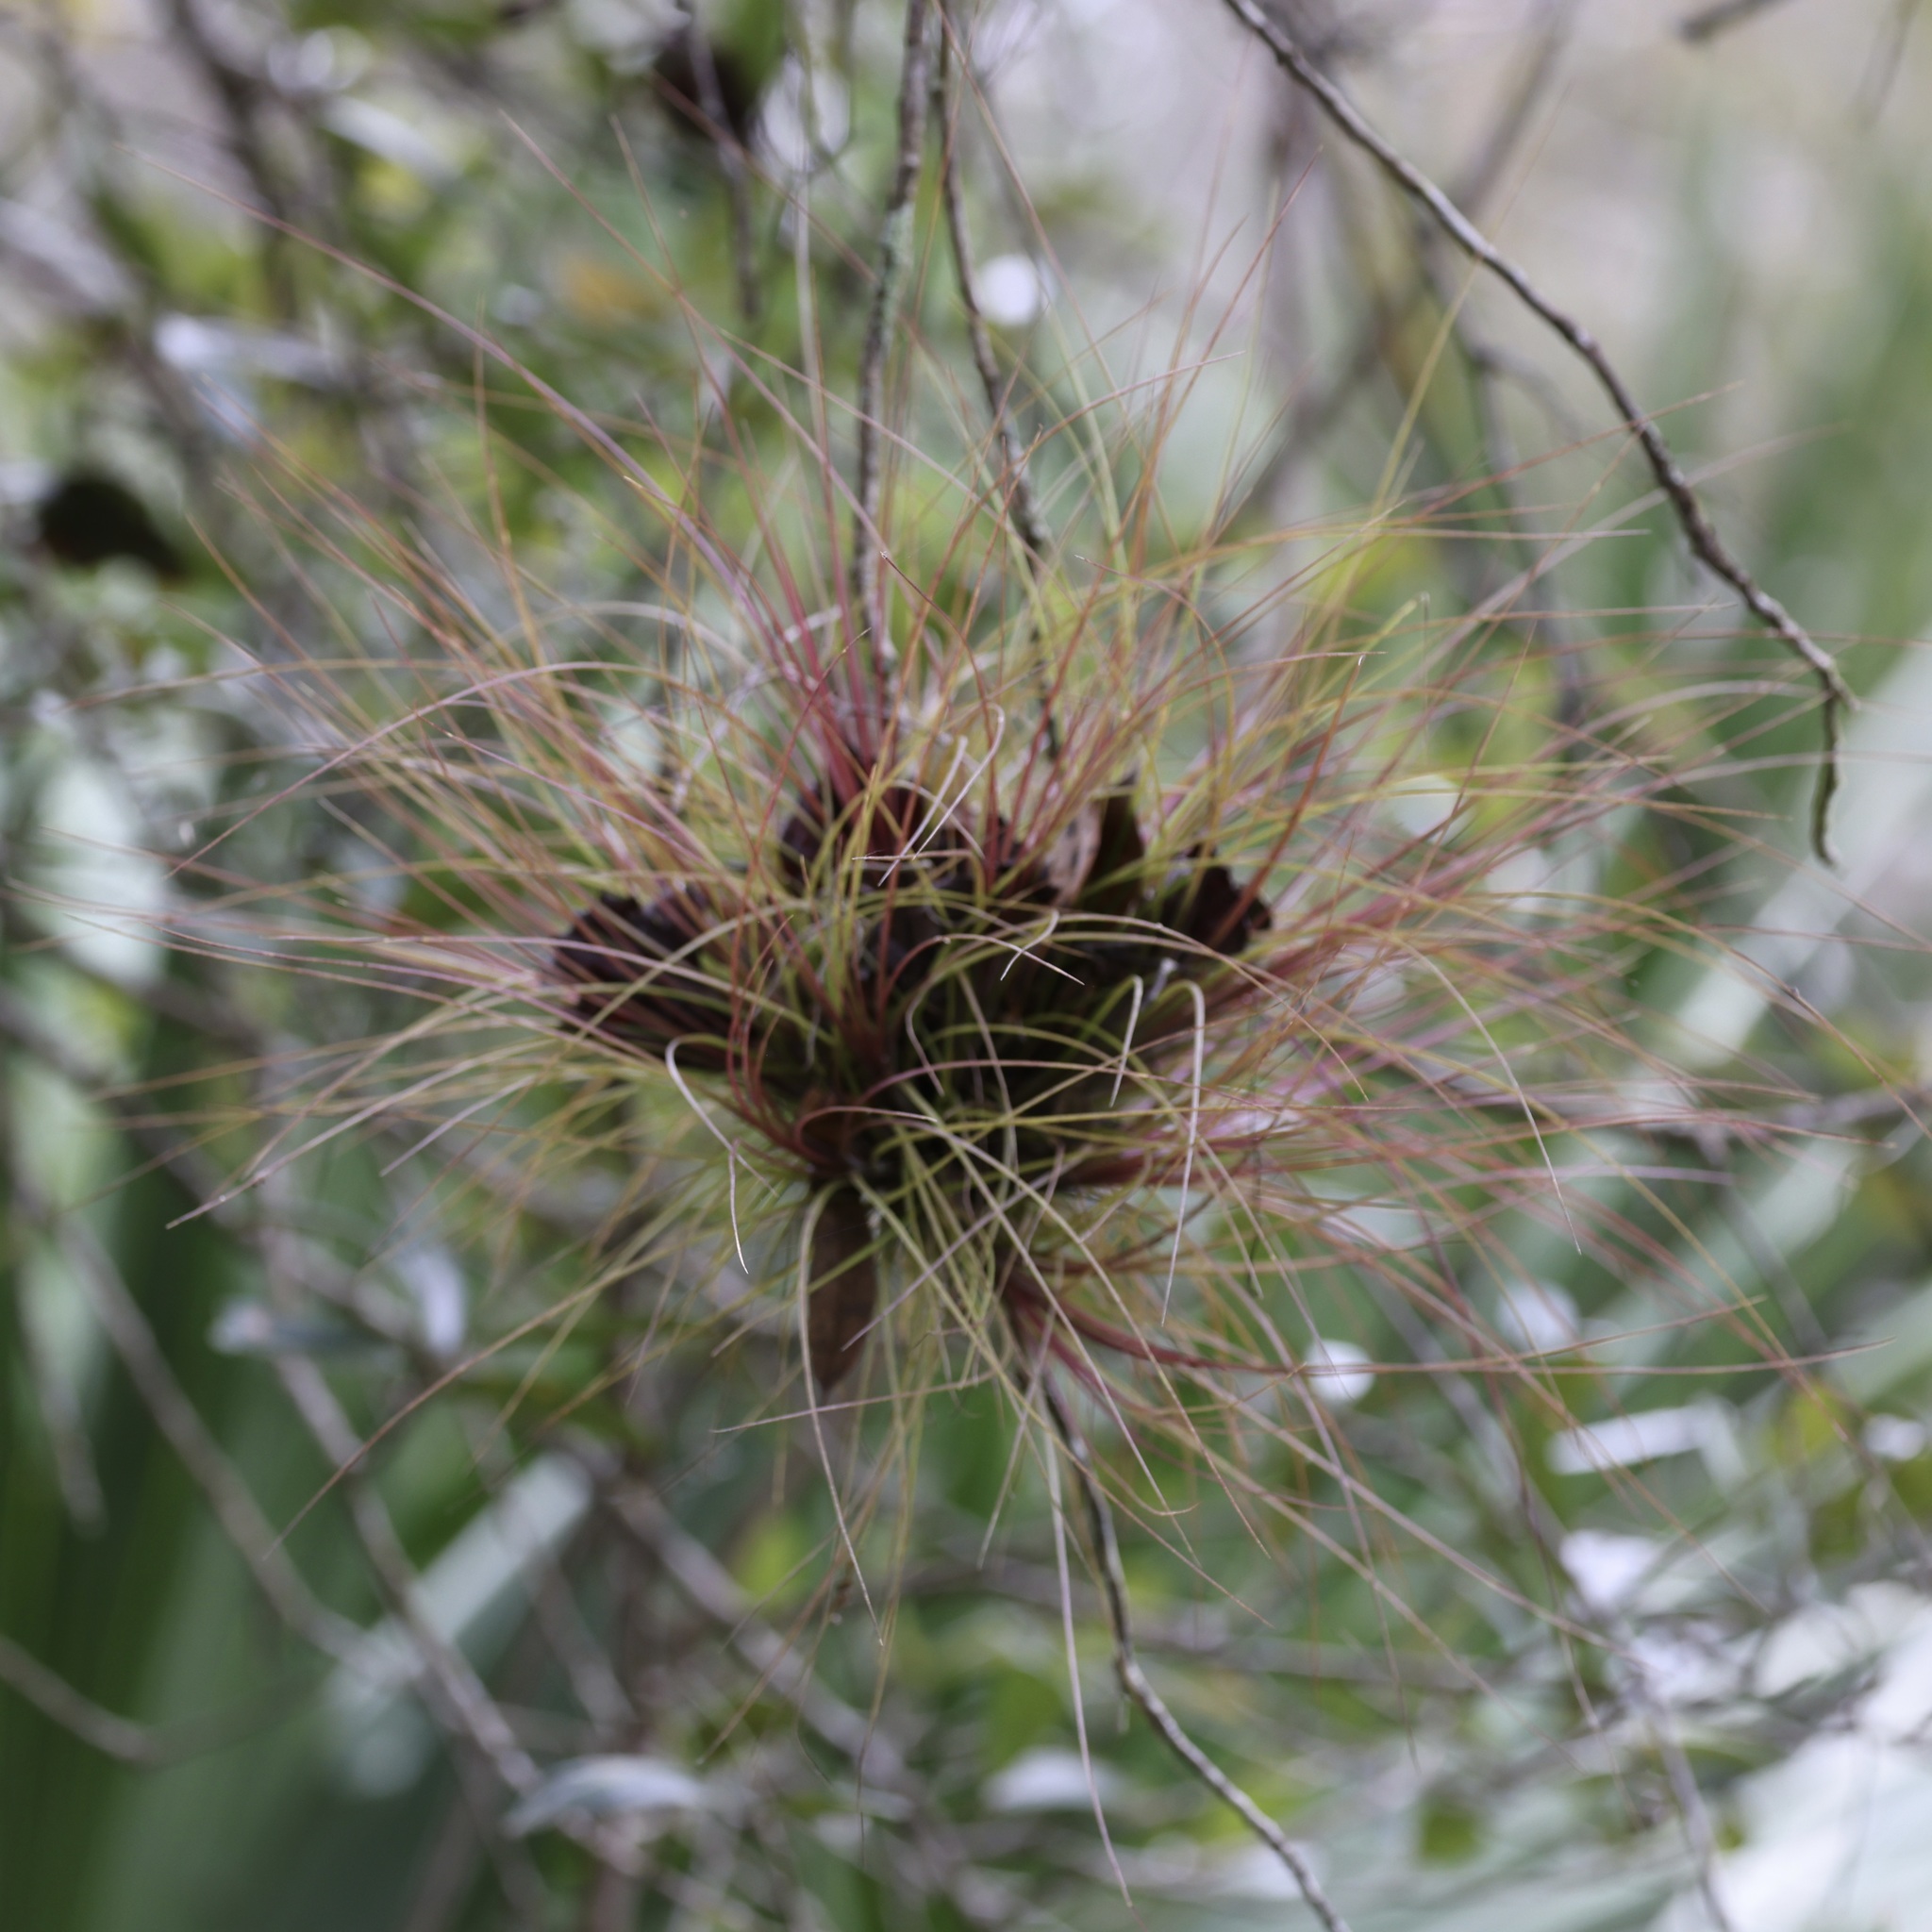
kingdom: Plantae
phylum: Tracheophyta
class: Liliopsida
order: Poales
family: Bromeliaceae
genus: Tillandsia
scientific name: Tillandsia setacea
